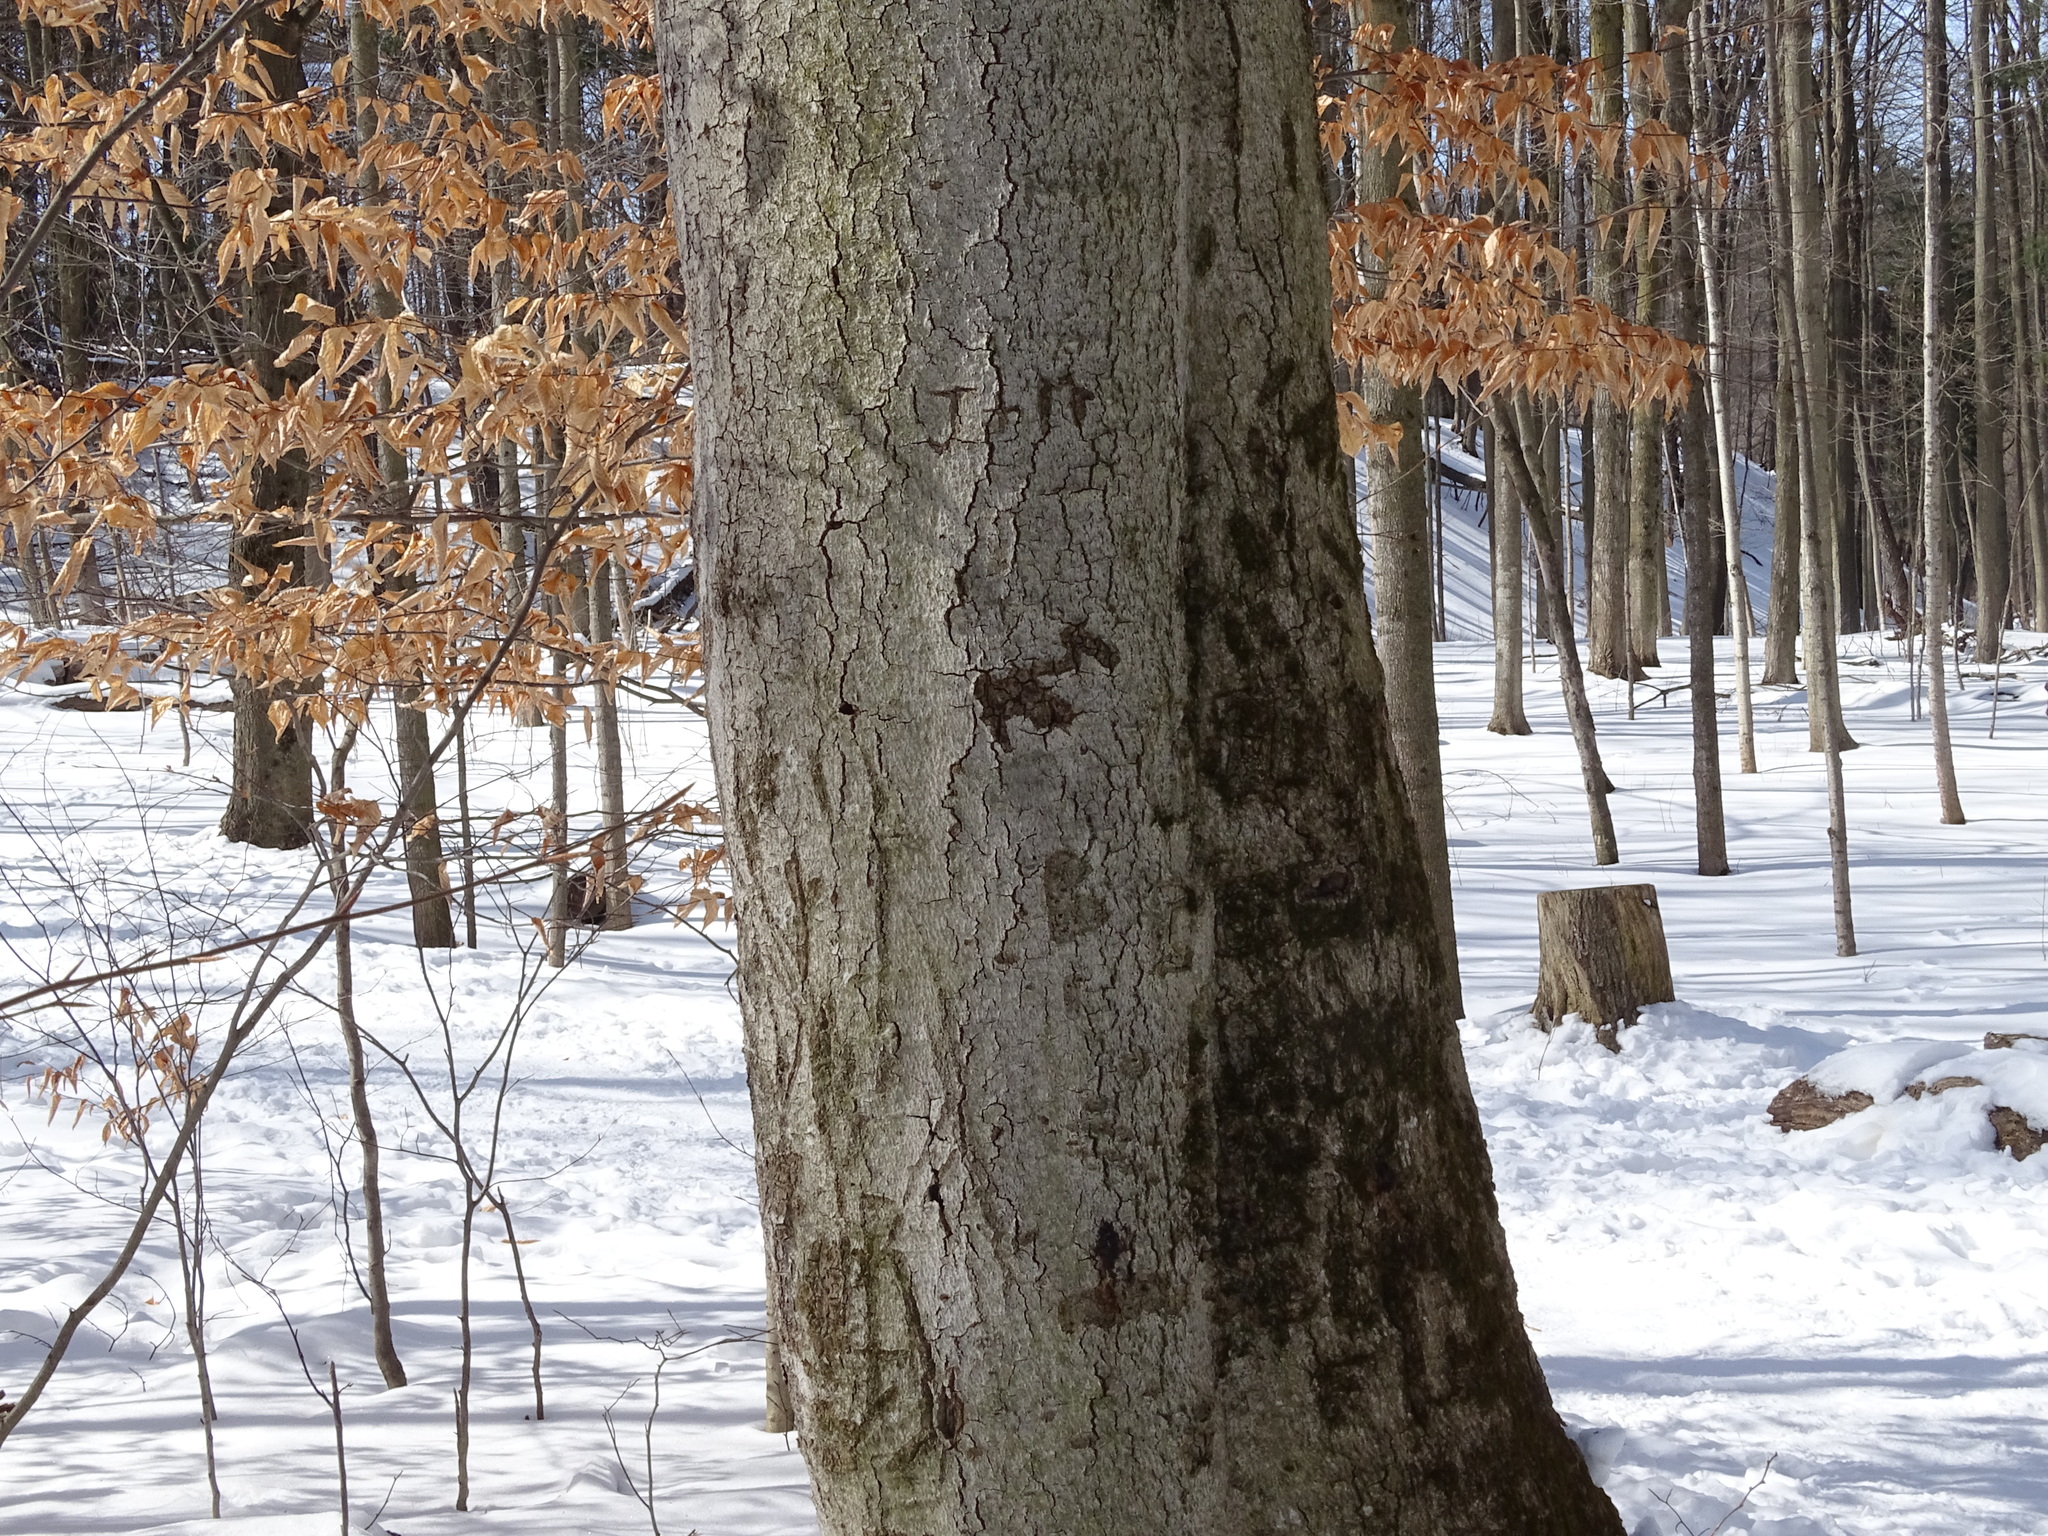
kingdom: Plantae
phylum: Tracheophyta
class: Magnoliopsida
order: Fagales
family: Fagaceae
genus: Fagus
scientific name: Fagus grandifolia
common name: American beech
